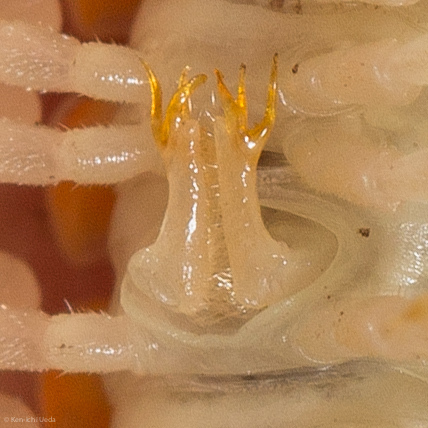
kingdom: Animalia
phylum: Arthropoda
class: Diplopoda
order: Polydesmida
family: Xystodesmidae
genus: Xystocheir
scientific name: Xystocheir dissecta
